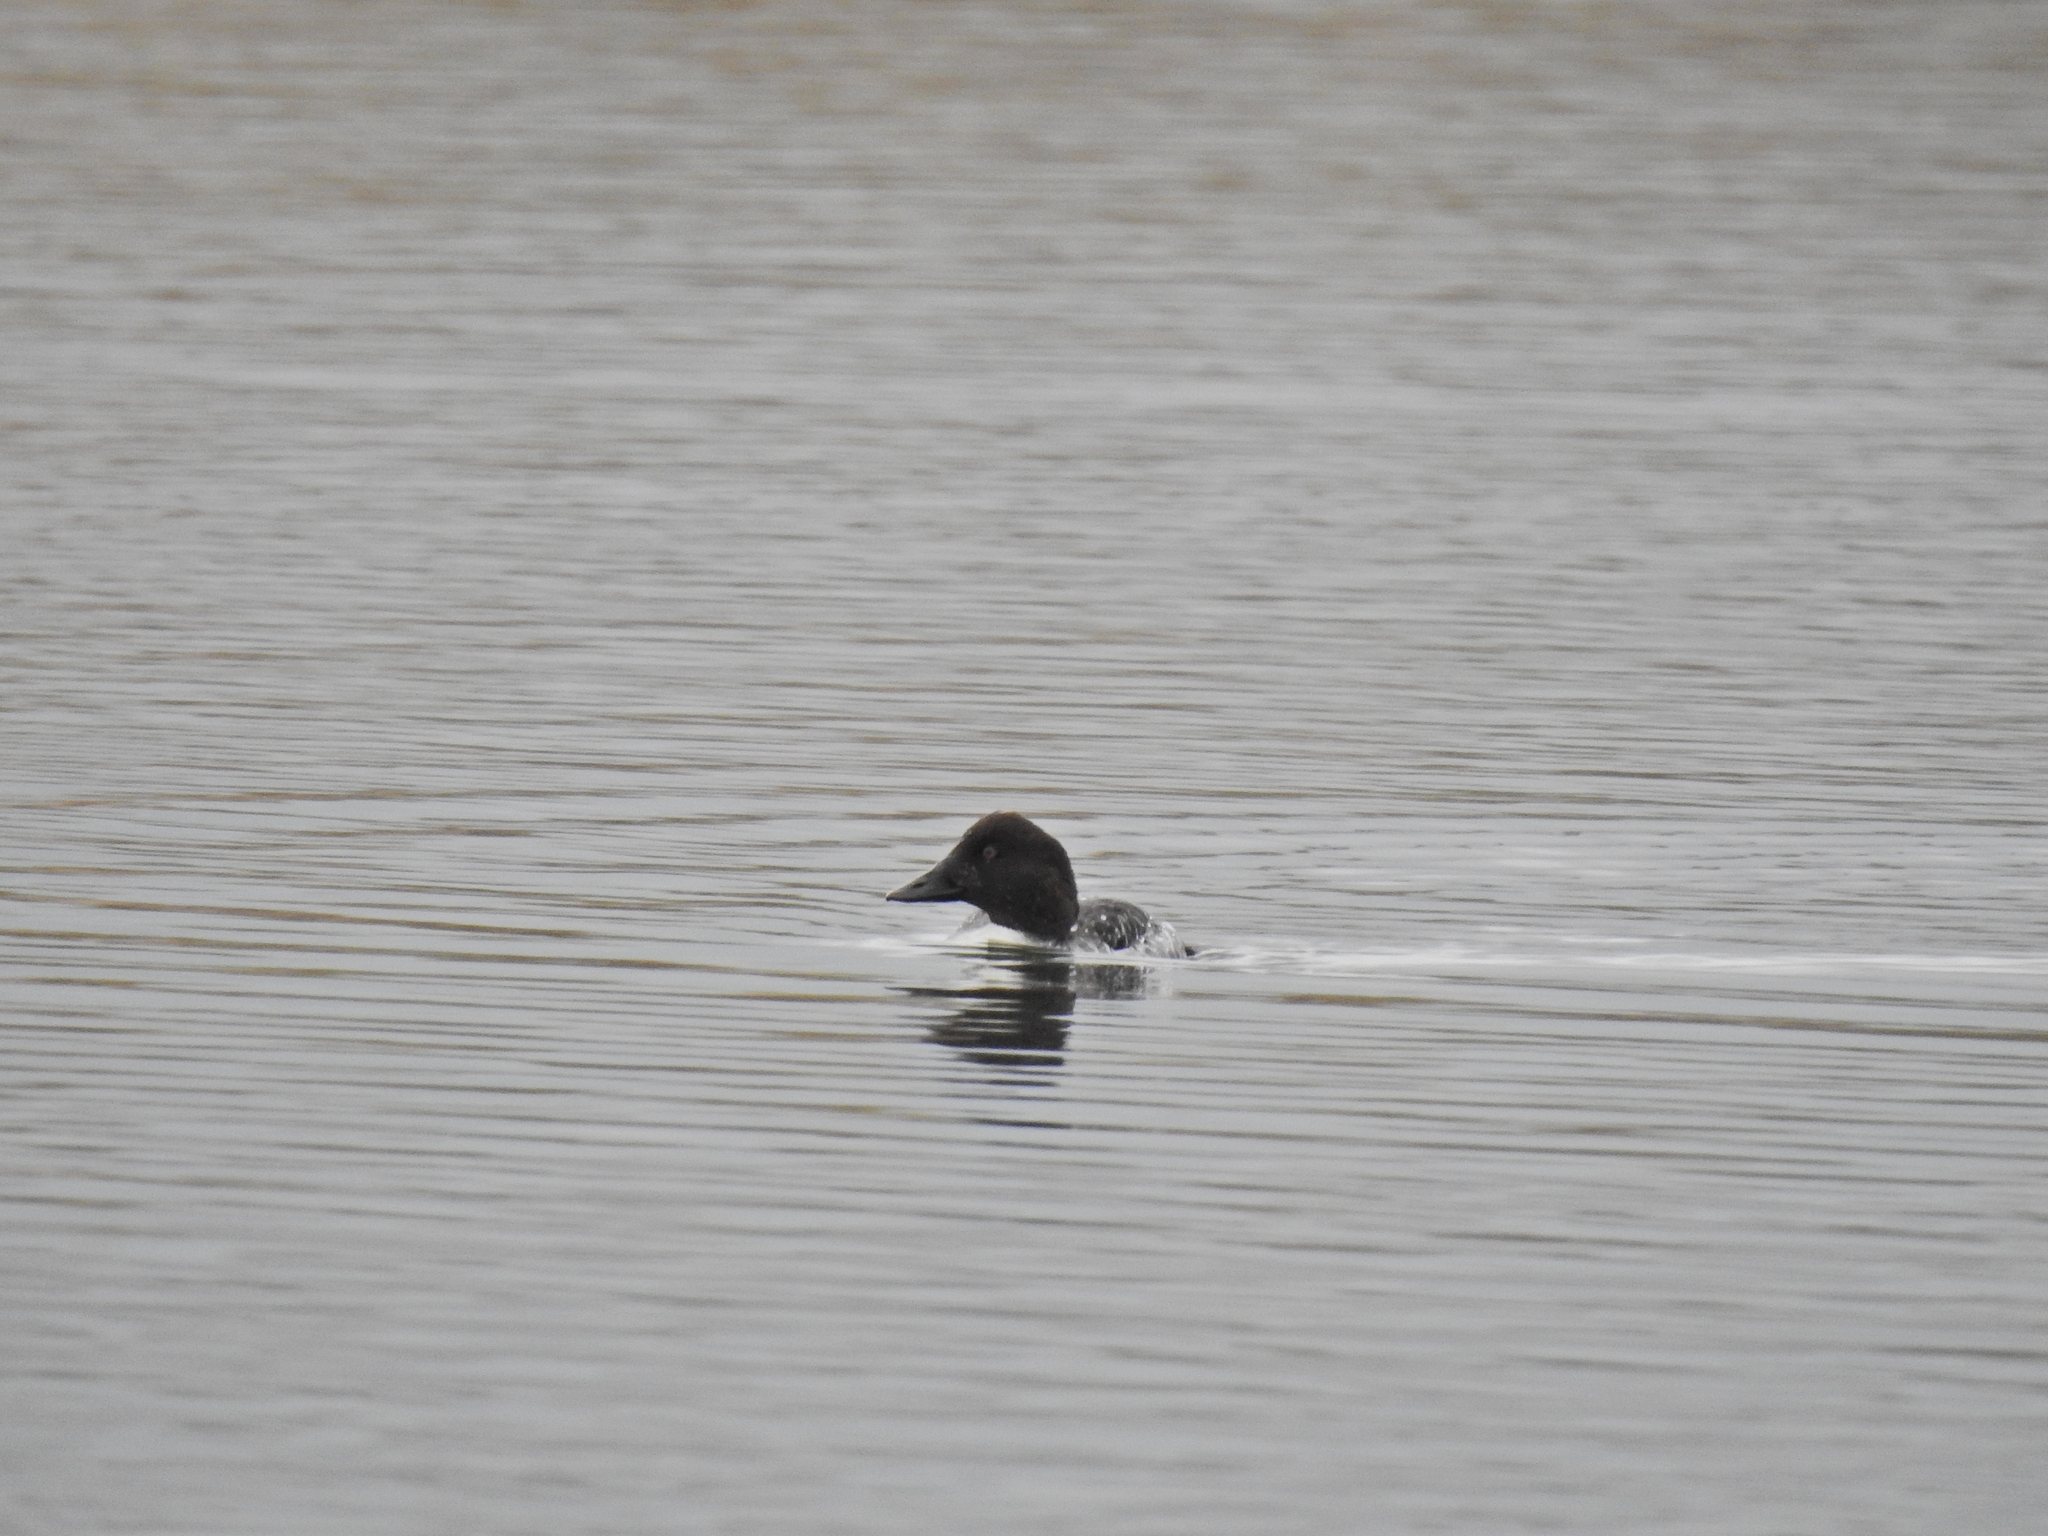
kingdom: Animalia
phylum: Chordata
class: Aves
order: Anseriformes
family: Anatidae
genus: Bucephala
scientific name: Bucephala clangula
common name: Common goldeneye
